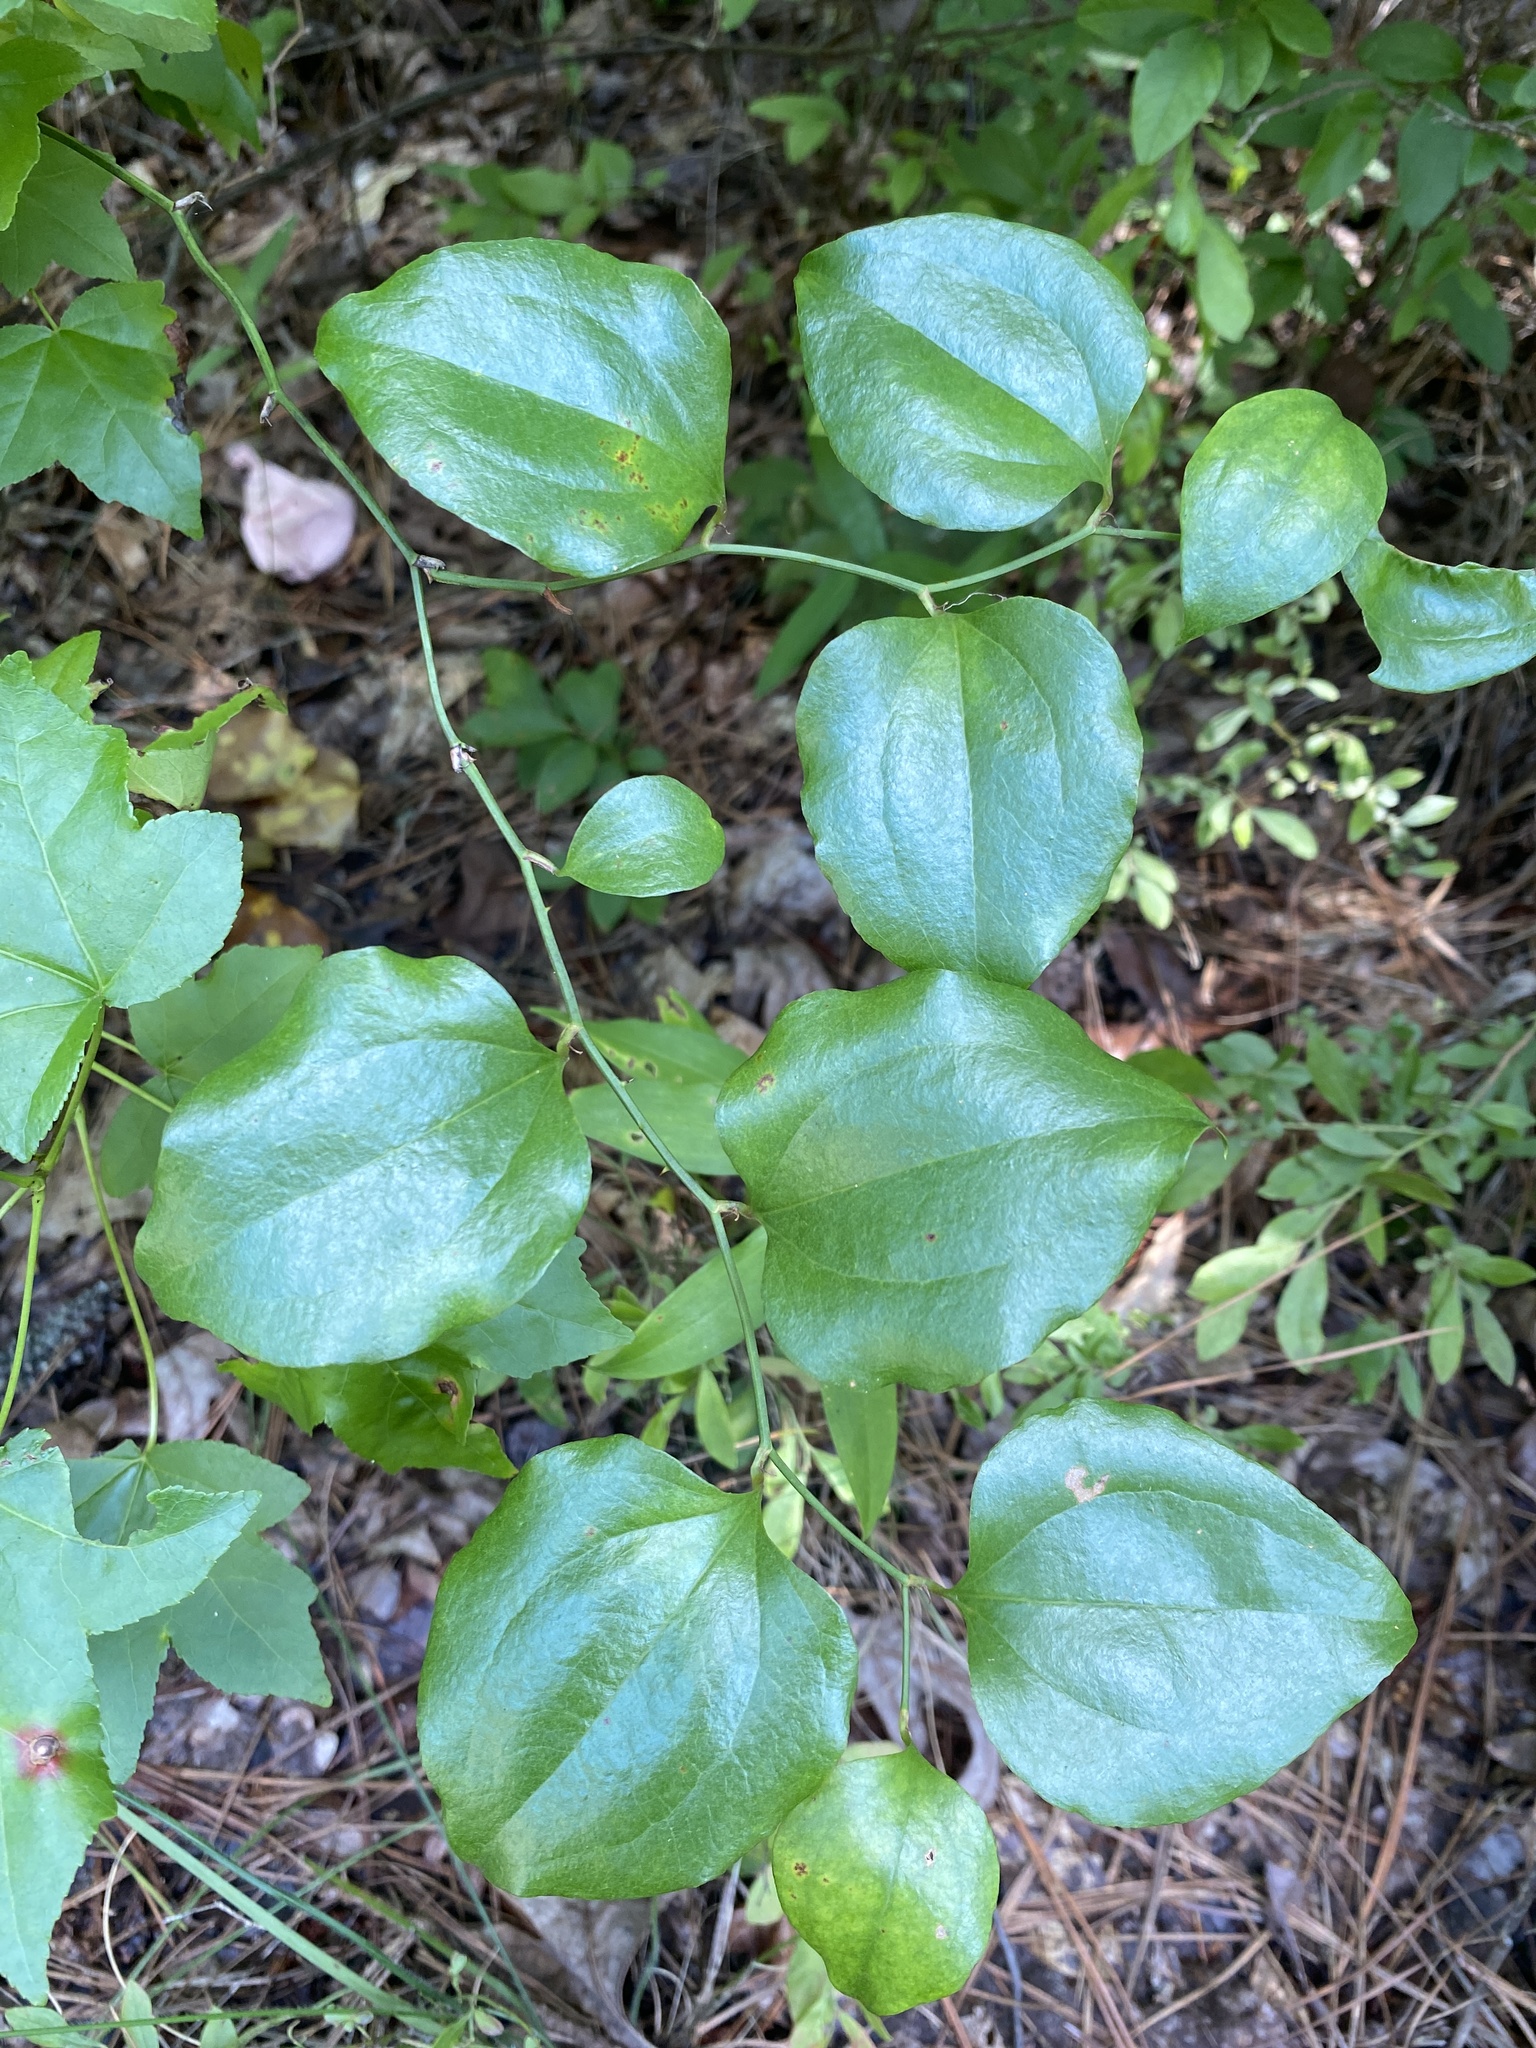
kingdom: Plantae
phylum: Tracheophyta
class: Liliopsida
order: Liliales
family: Smilacaceae
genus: Smilax
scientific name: Smilax rotundifolia
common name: Bullbriar
